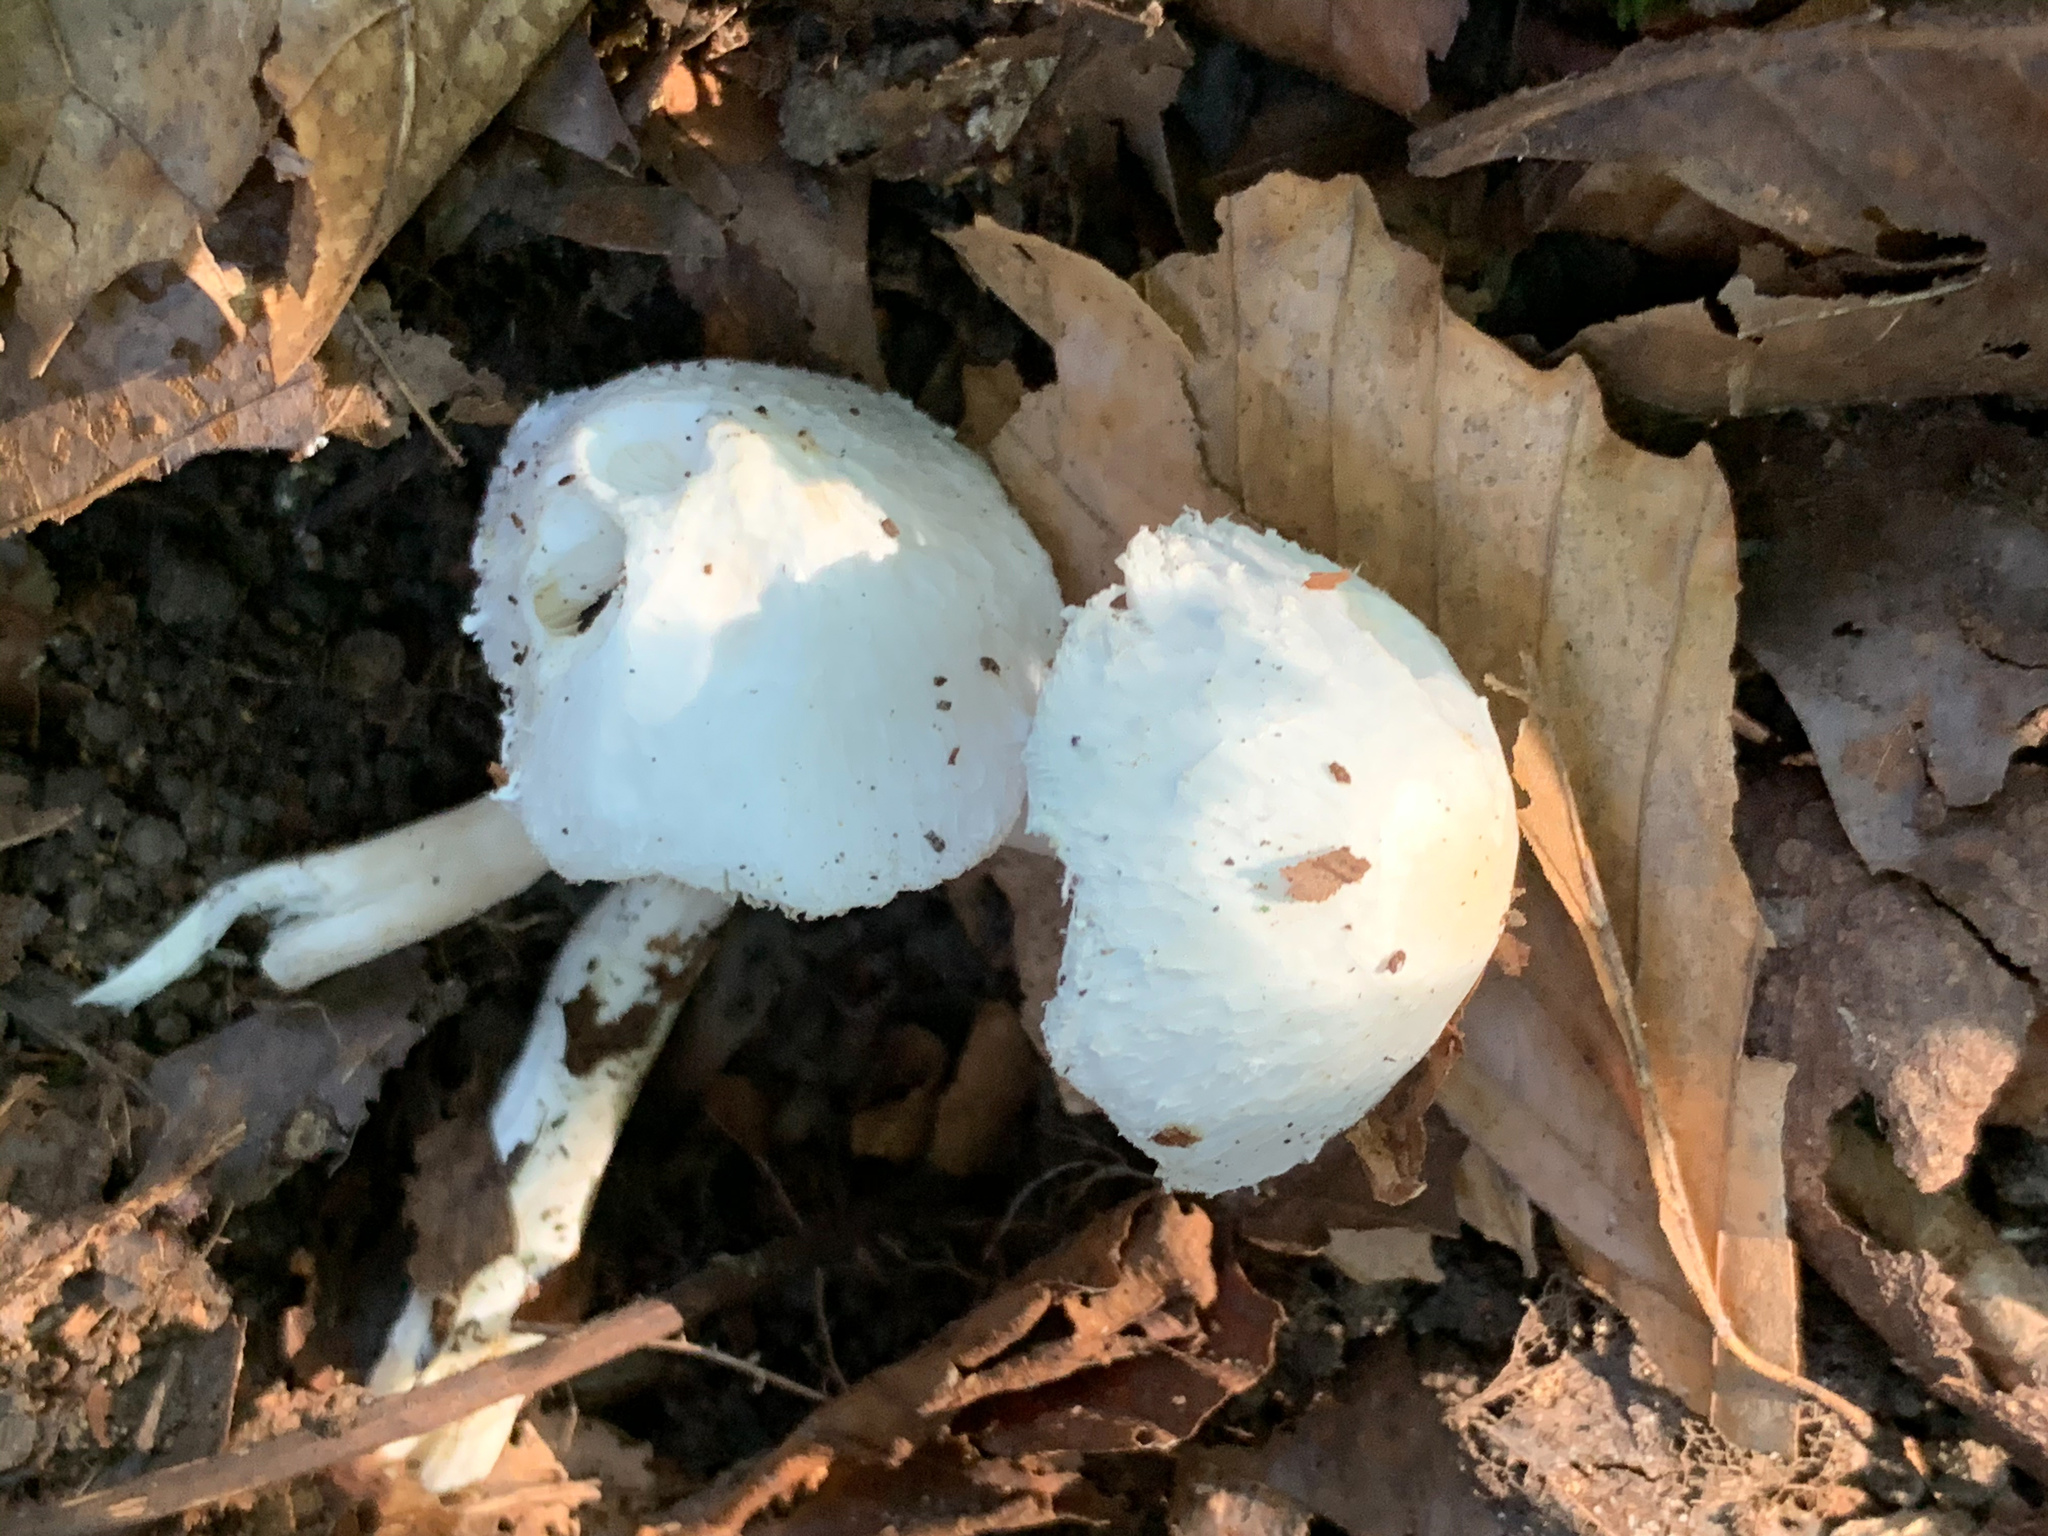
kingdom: Fungi
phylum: Basidiomycota
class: Agaricomycetes
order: Agaricales
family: Agaricaceae
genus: Leucocoprinus
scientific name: Leucocoprinus cepistipes
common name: Onion-stalk parasol
